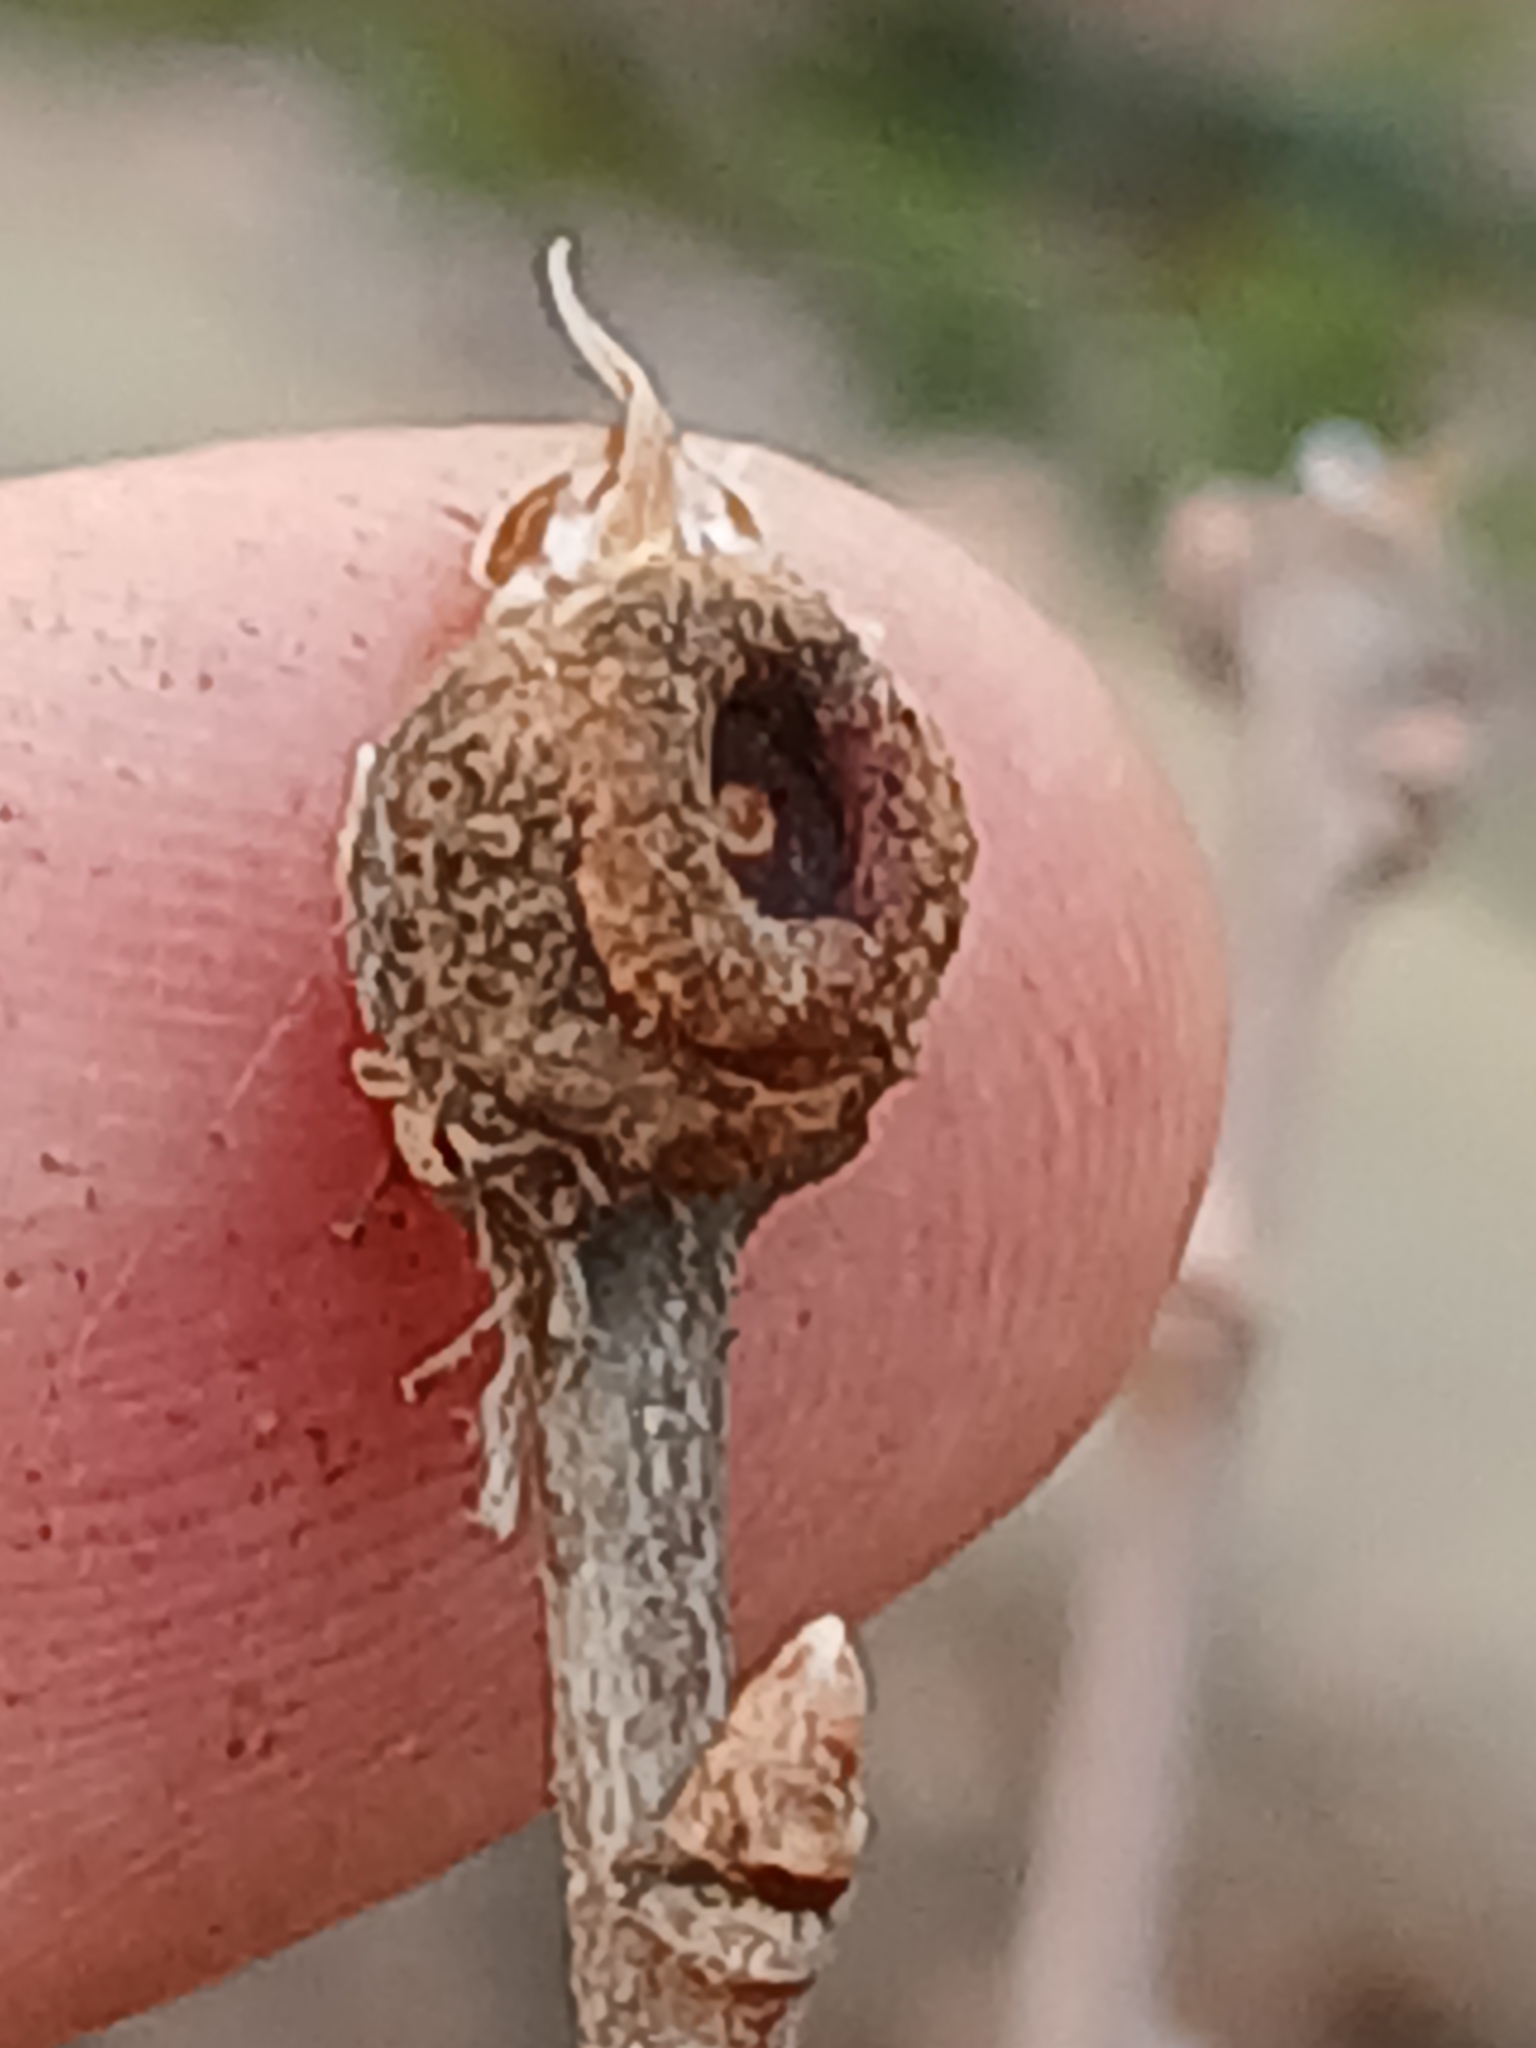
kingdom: Animalia
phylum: Arthropoda
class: Insecta
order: Hymenoptera
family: Cynipidae
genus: Andricus
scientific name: Andricus glutinosus
